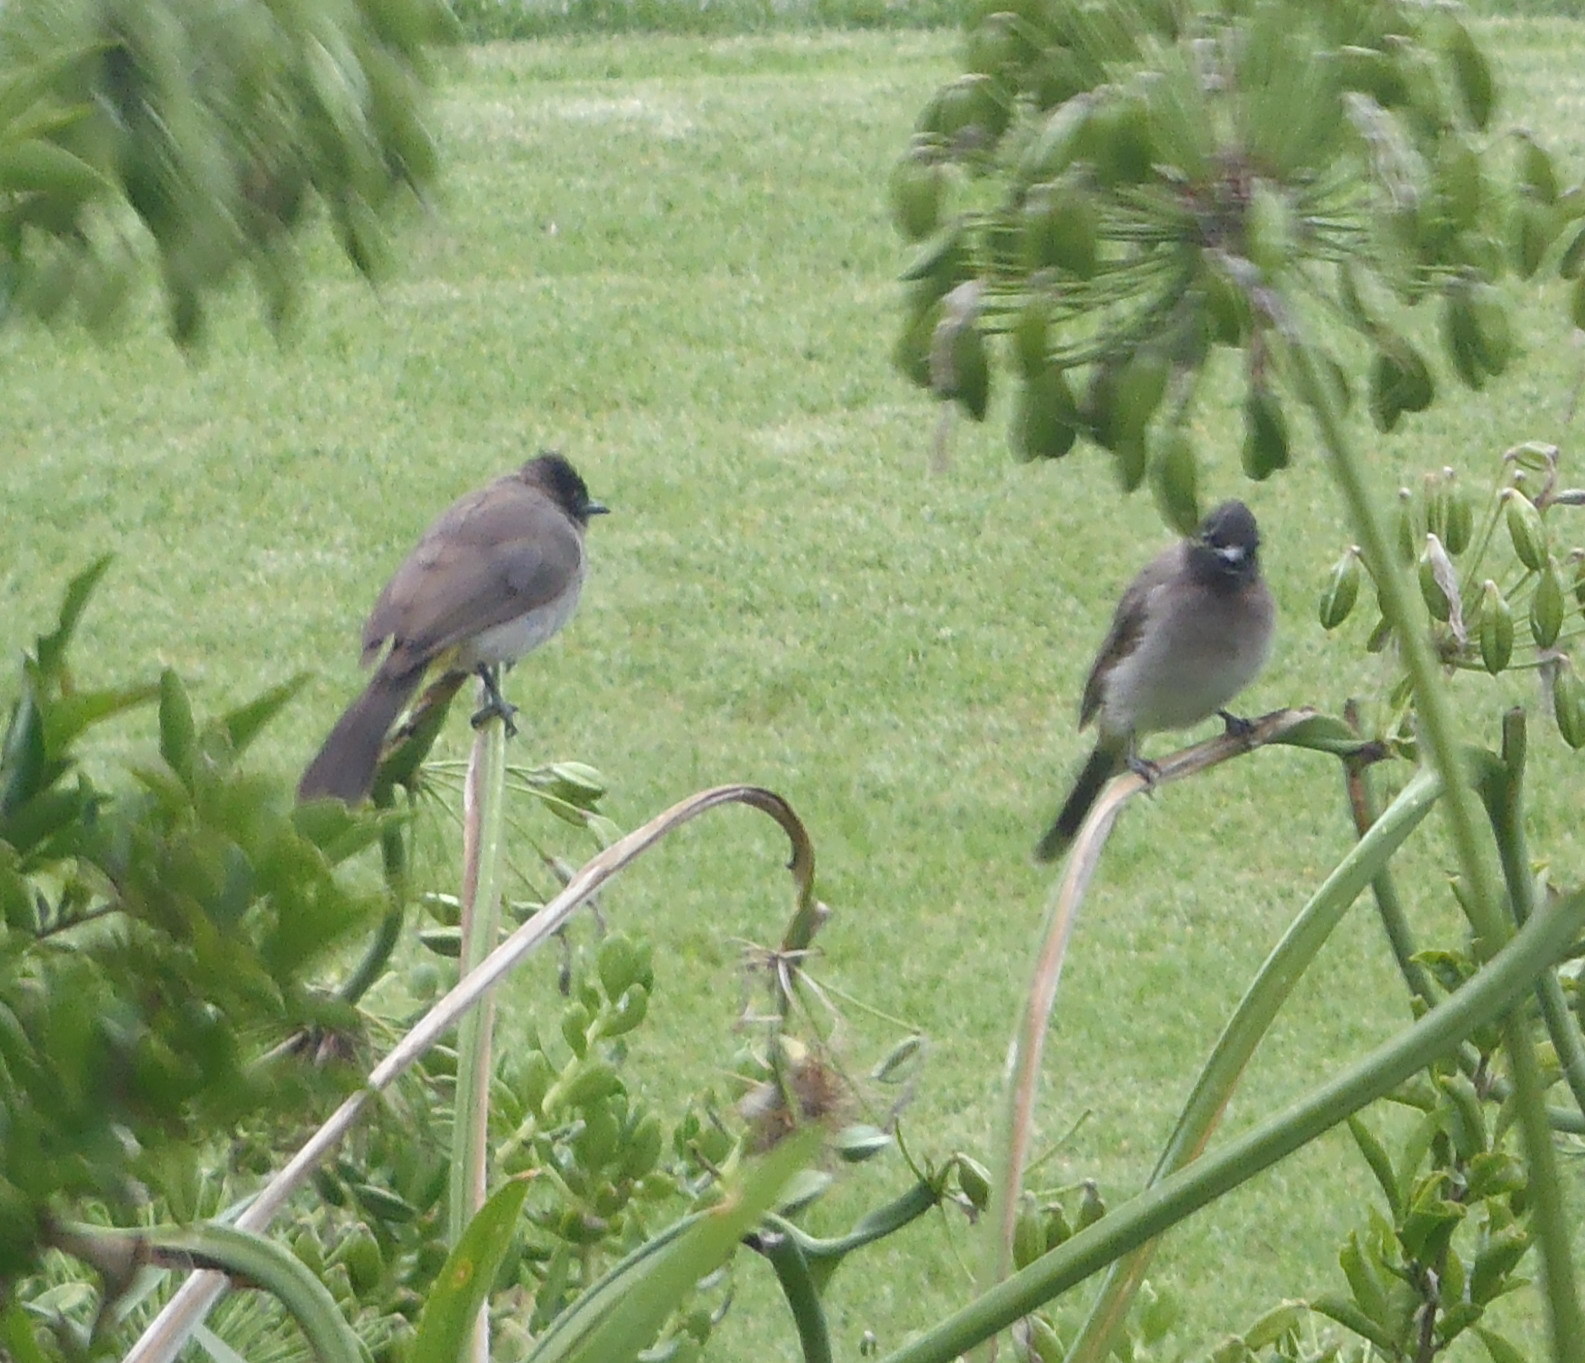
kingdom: Animalia
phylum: Chordata
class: Aves
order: Passeriformes
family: Pycnonotidae
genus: Pycnonotus
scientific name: Pycnonotus barbatus
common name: Common bulbul
